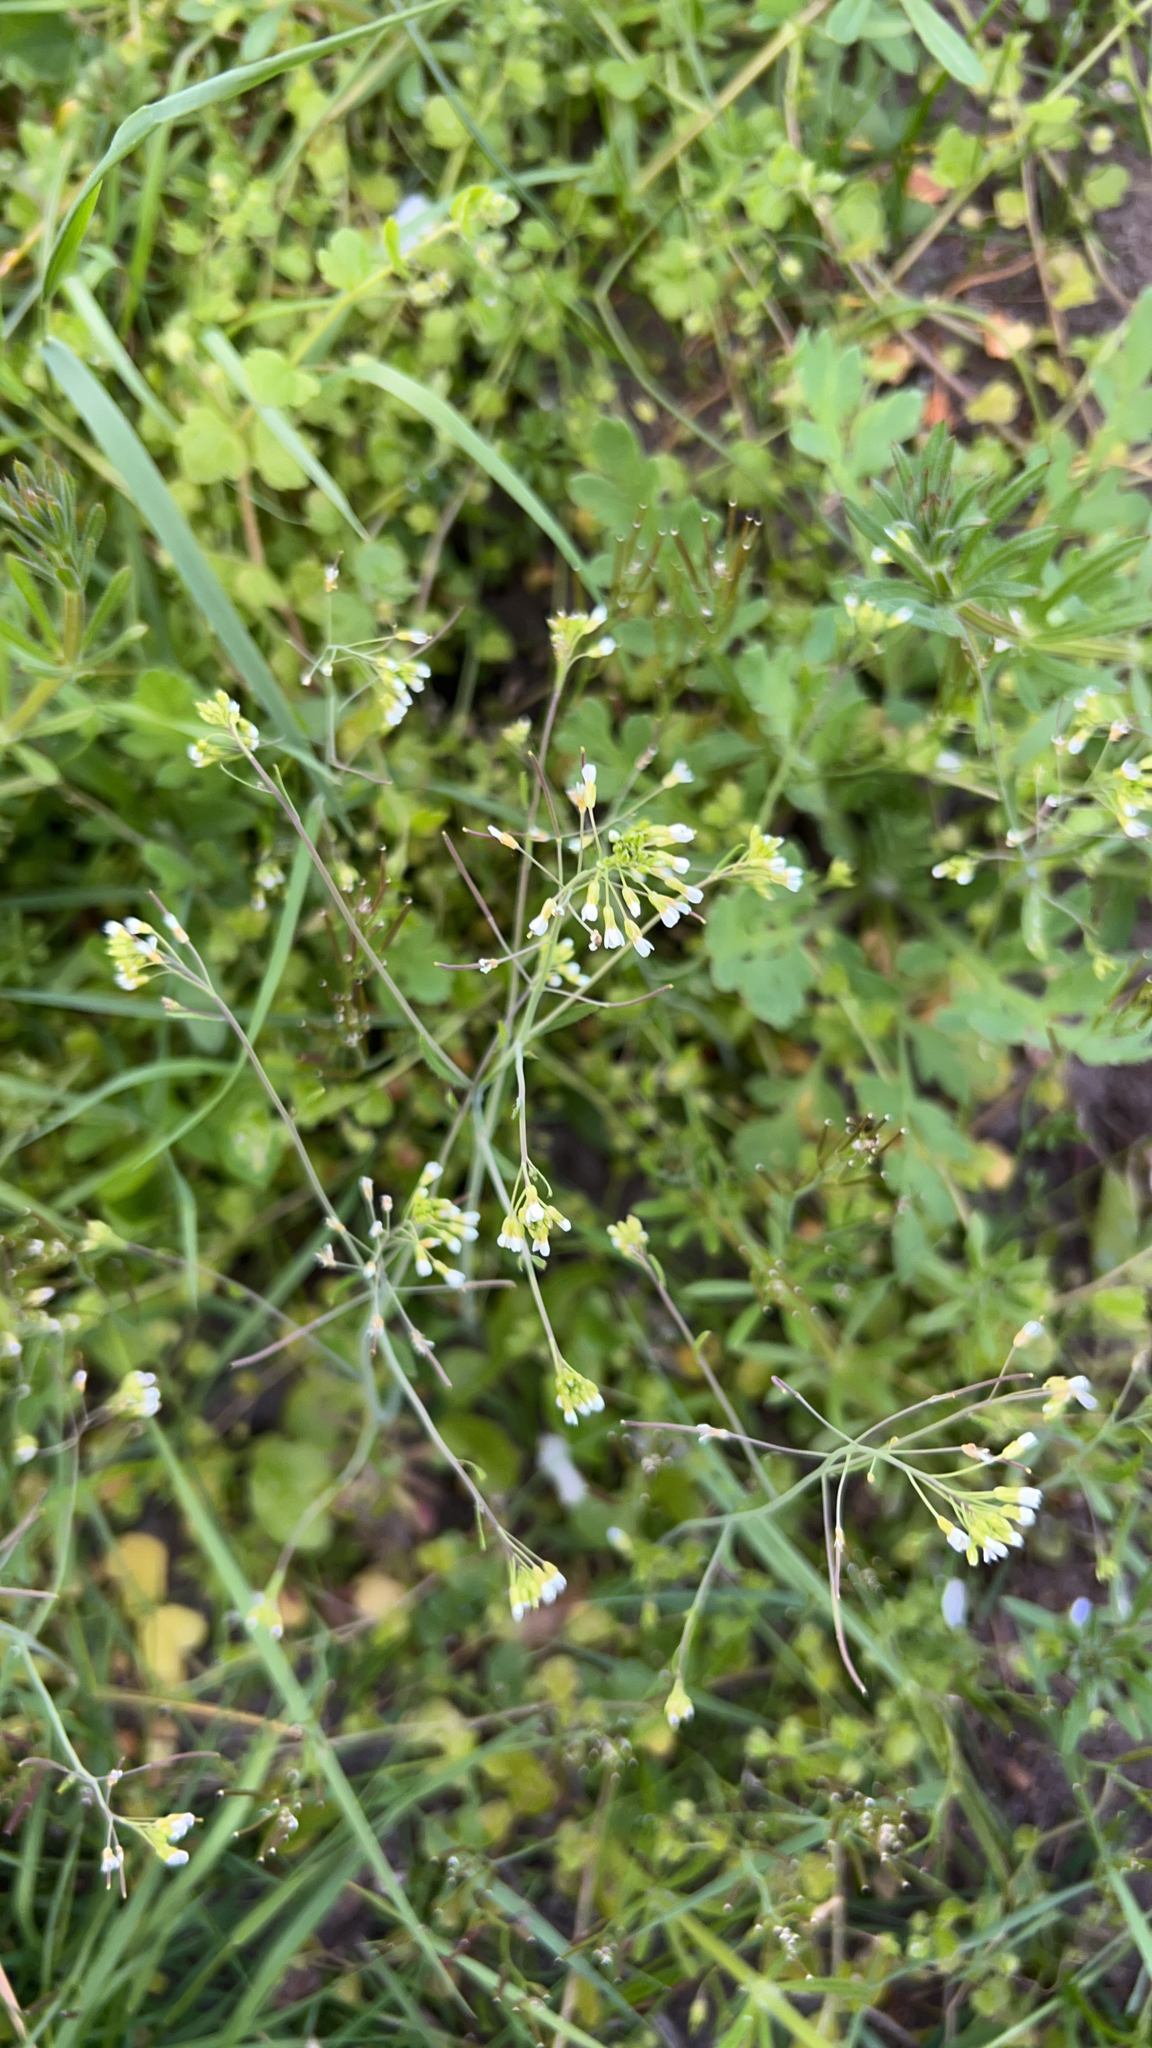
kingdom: Plantae
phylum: Tracheophyta
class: Magnoliopsida
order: Brassicales
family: Brassicaceae
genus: Arabidopsis
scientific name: Arabidopsis thaliana
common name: Thale cress
